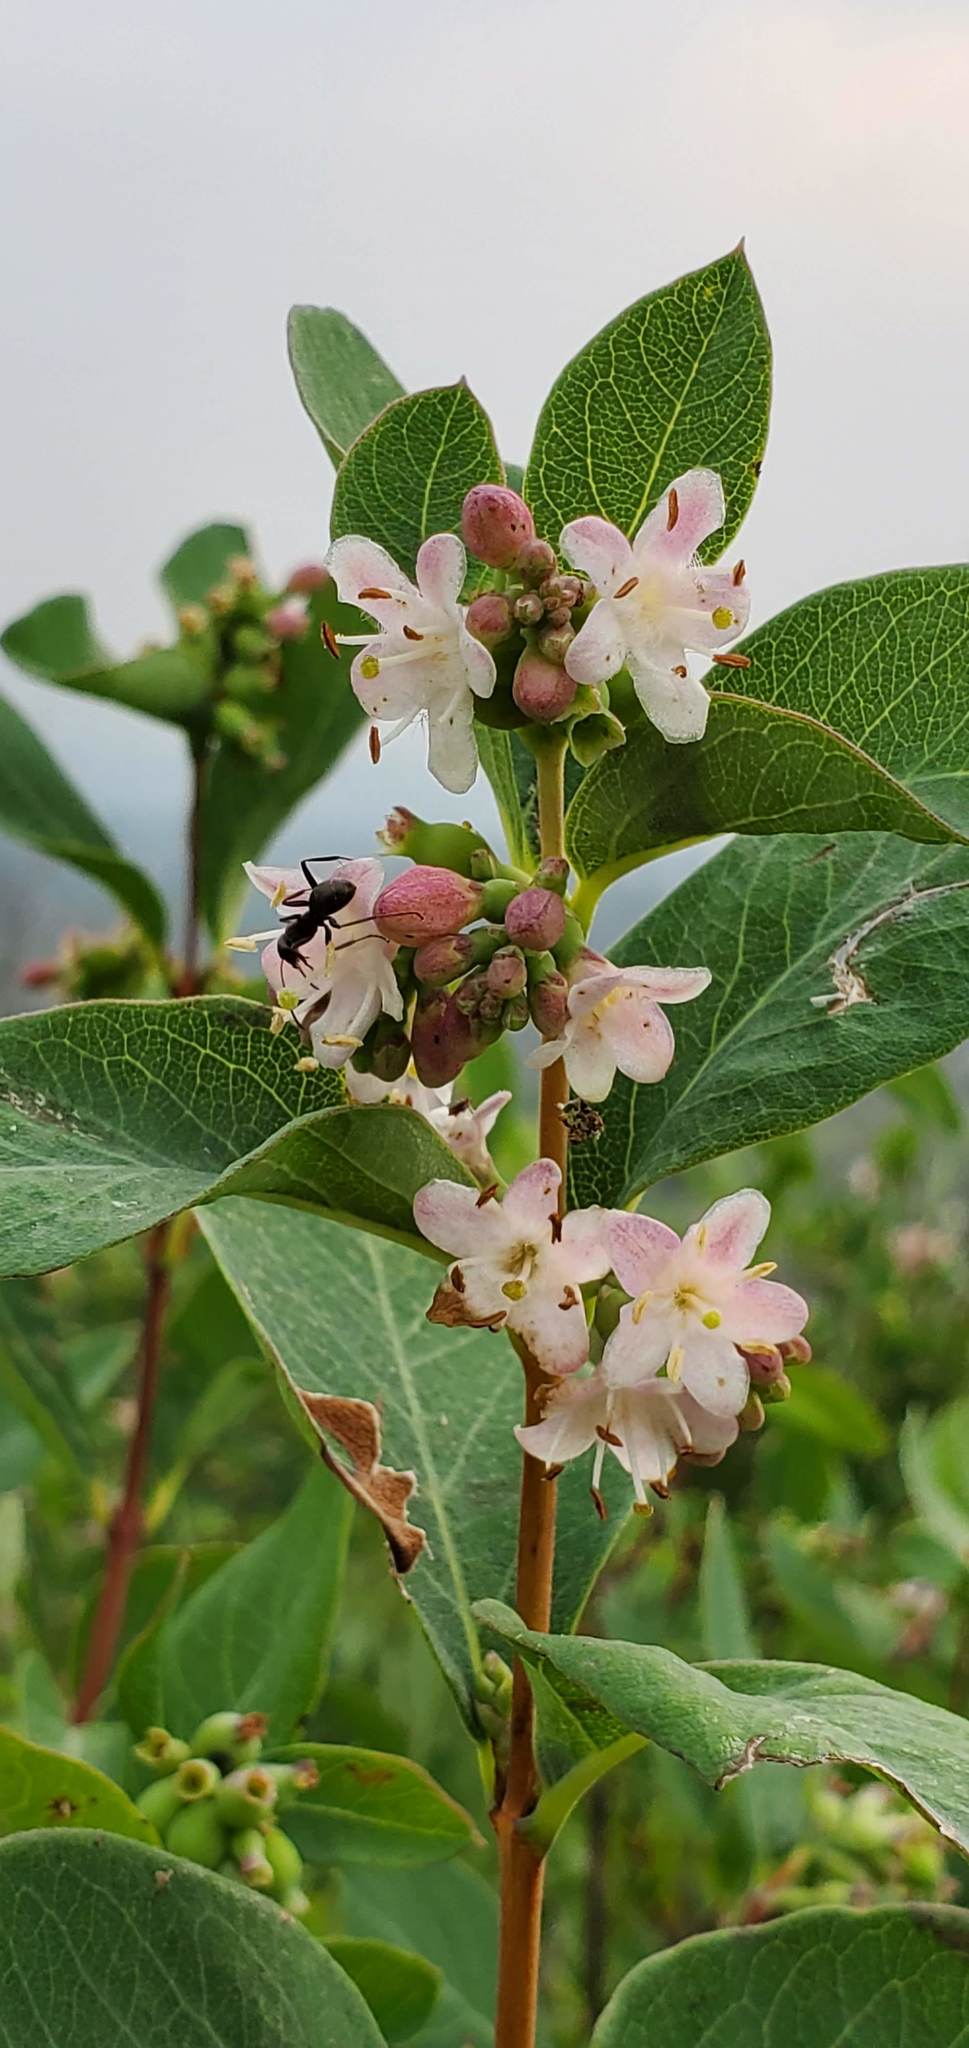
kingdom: Plantae
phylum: Tracheophyta
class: Magnoliopsida
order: Dipsacales
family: Caprifoliaceae
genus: Symphoricarpos
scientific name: Symphoricarpos occidentalis
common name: Wolfberry
